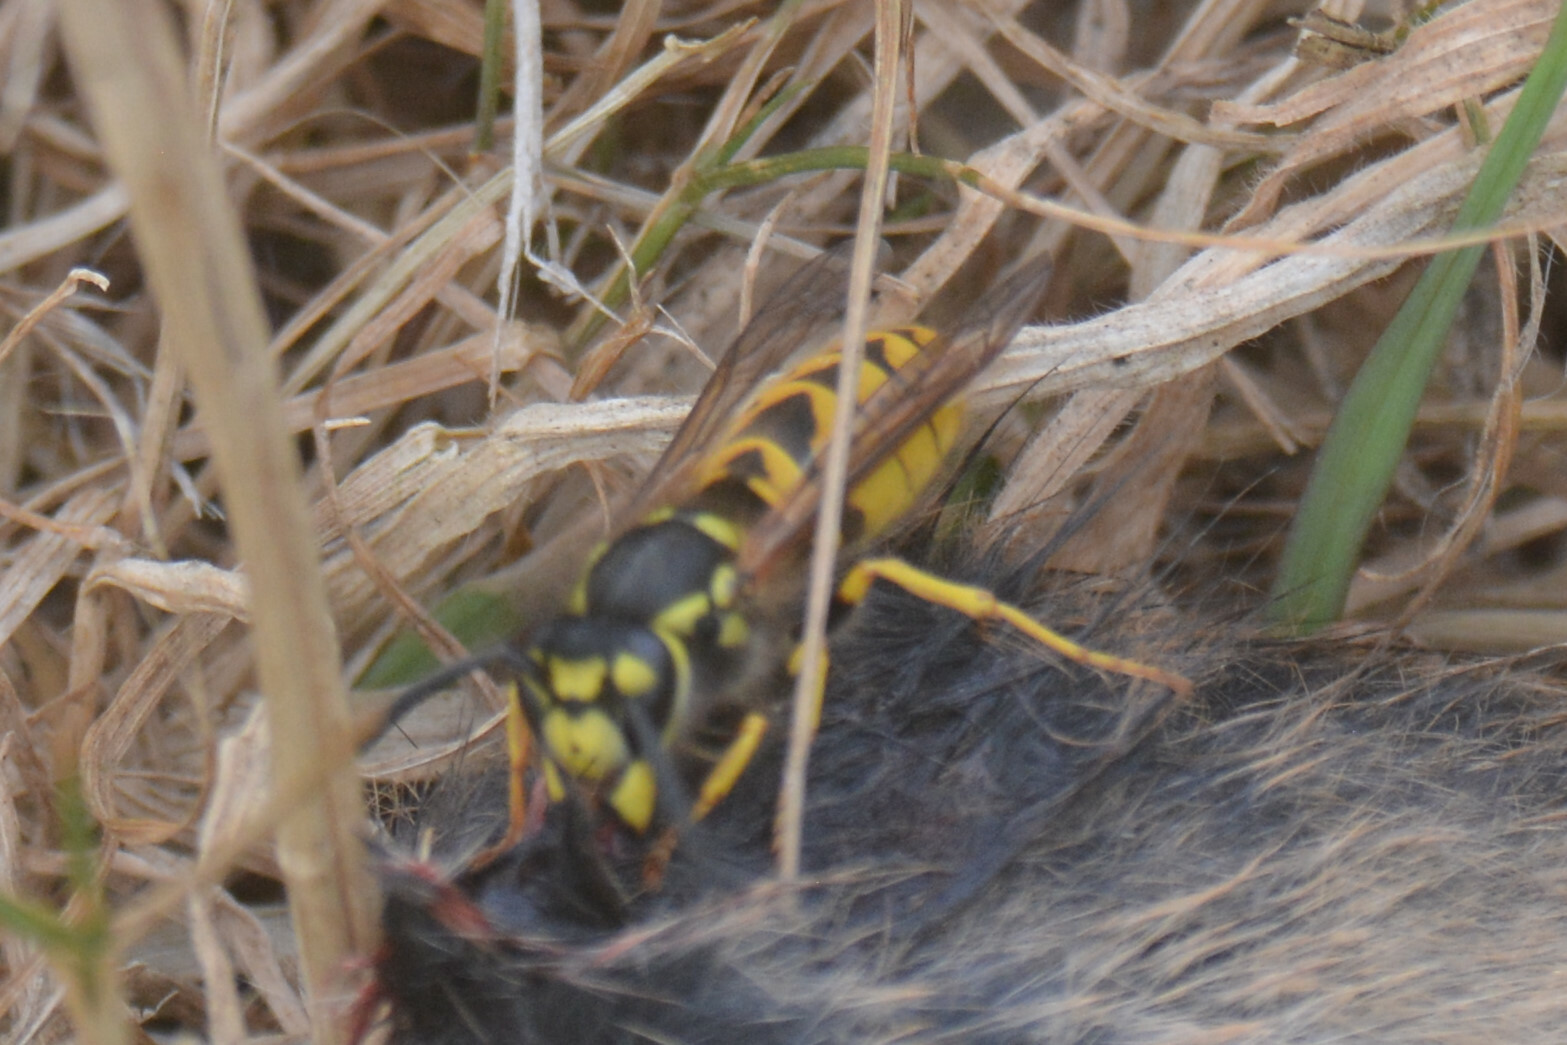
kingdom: Animalia
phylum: Arthropoda
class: Insecta
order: Hymenoptera
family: Vespidae
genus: Vespula
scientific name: Vespula germanica
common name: German wasp
